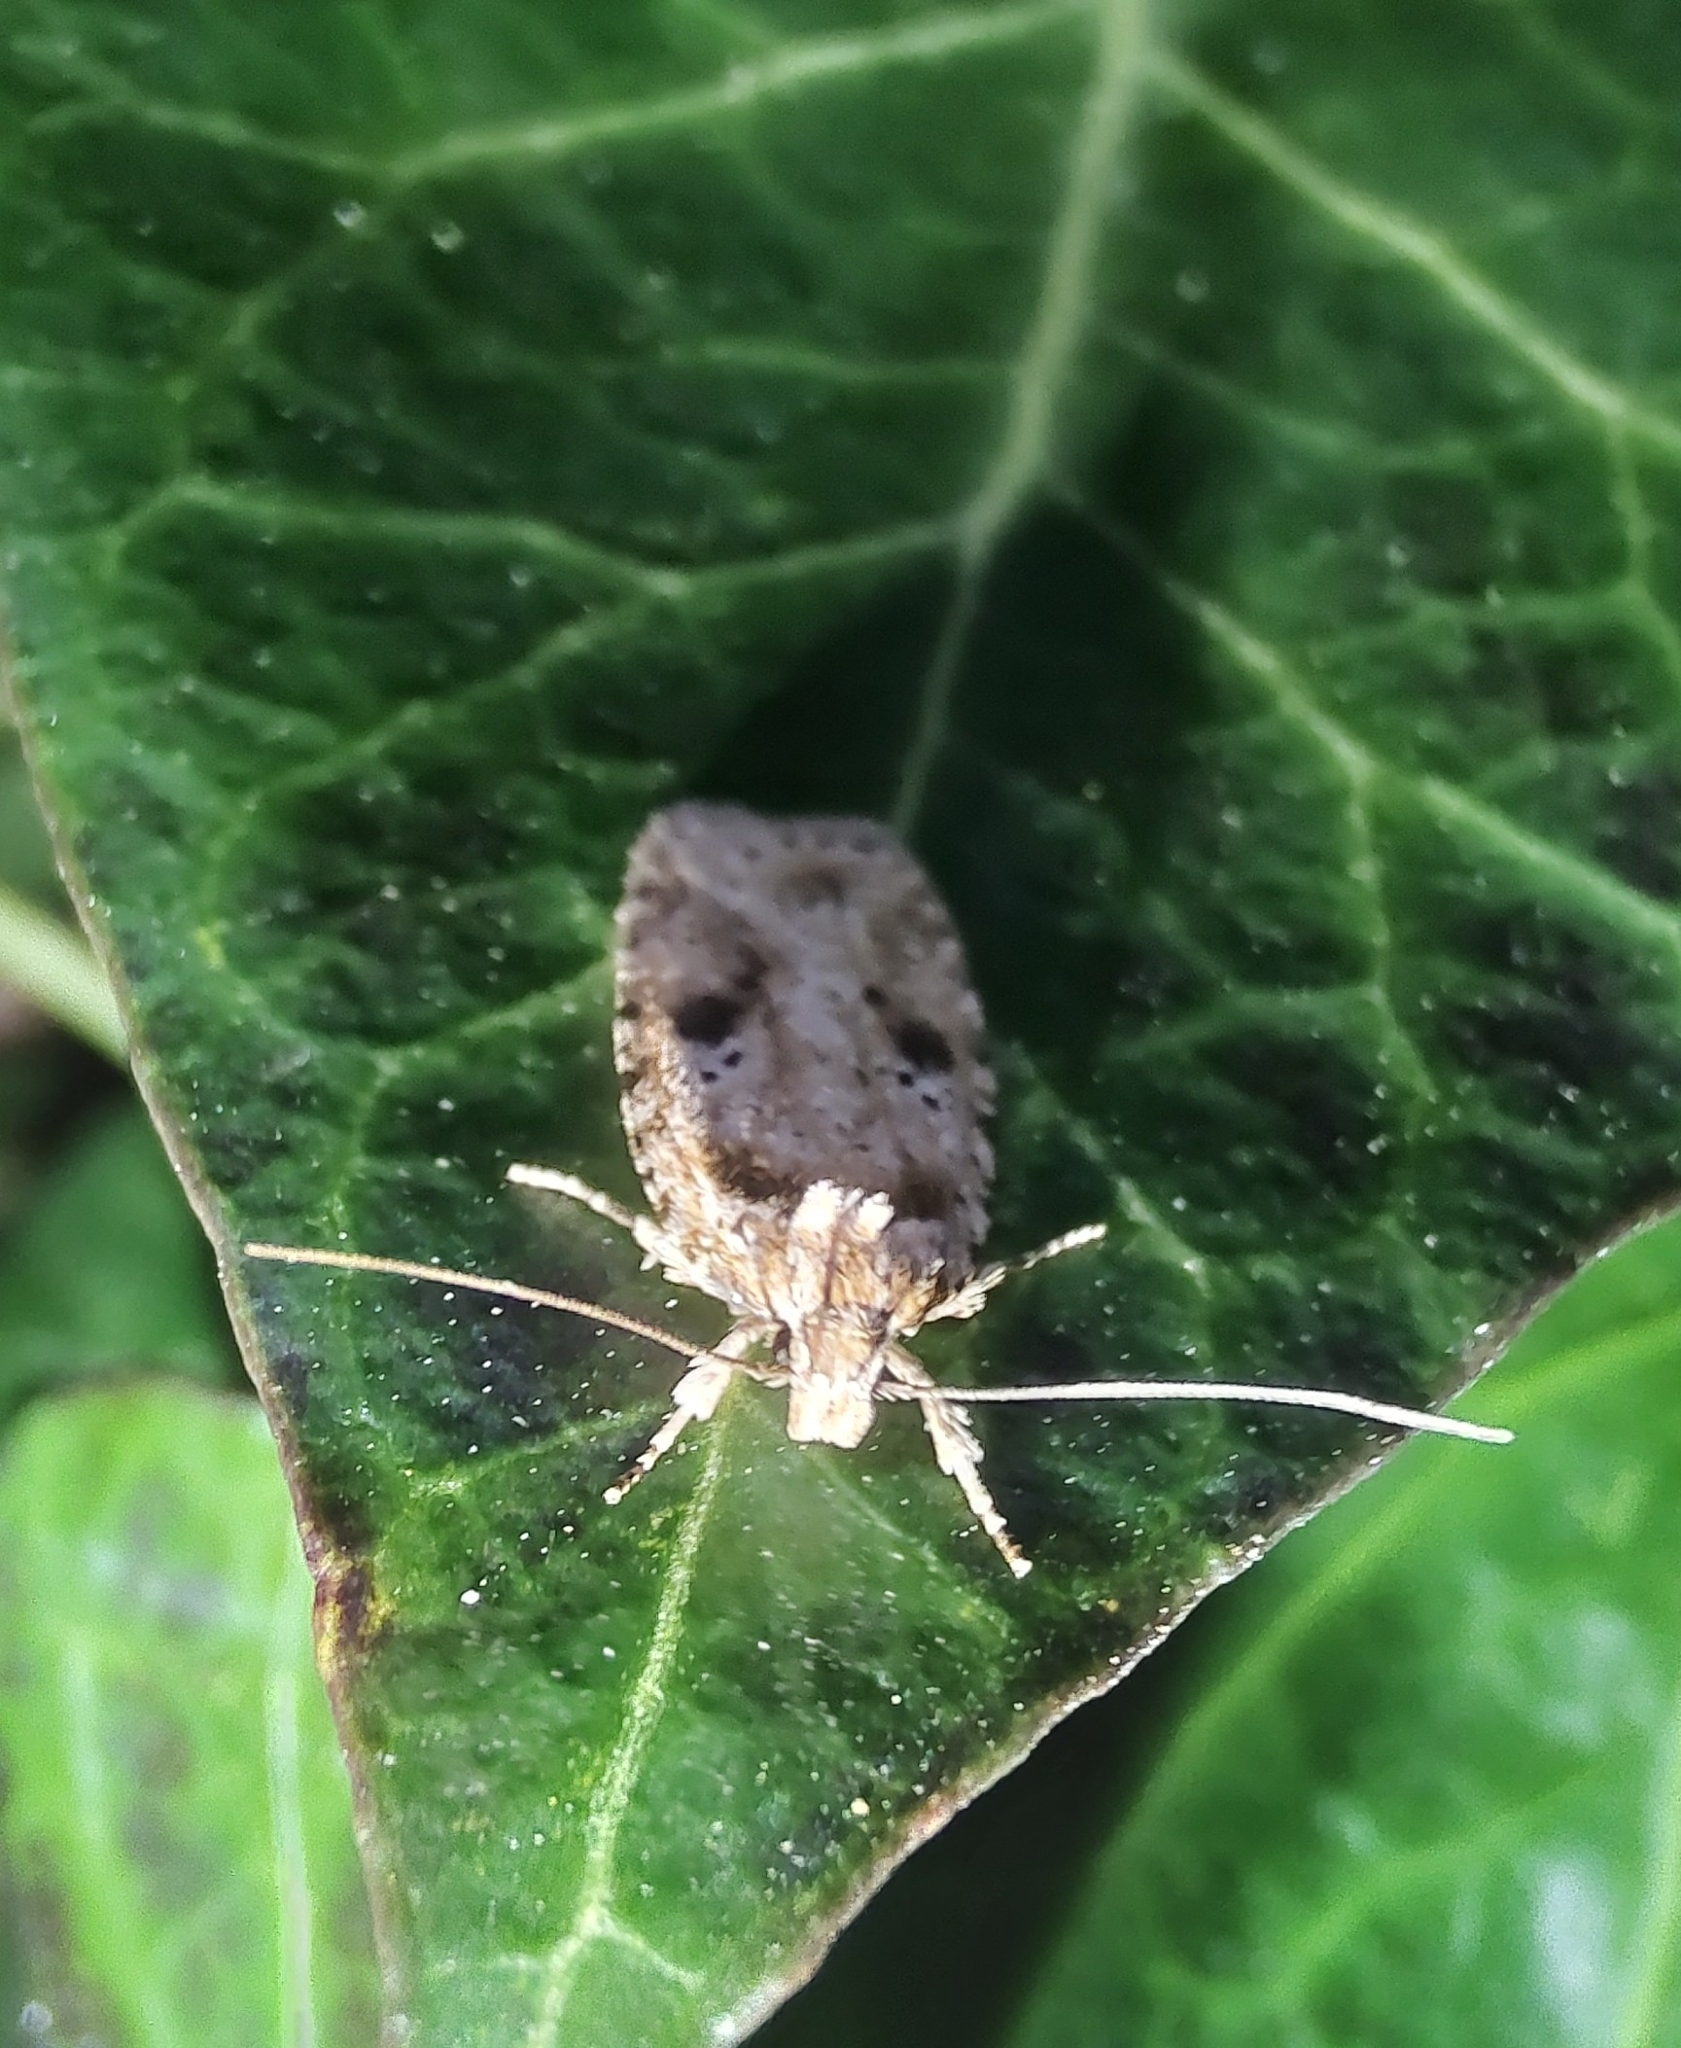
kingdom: Animalia
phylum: Arthropoda
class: Insecta
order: Lepidoptera
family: Depressariidae
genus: Agonopterix
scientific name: Agonopterix arenella
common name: Brindled flat-body
